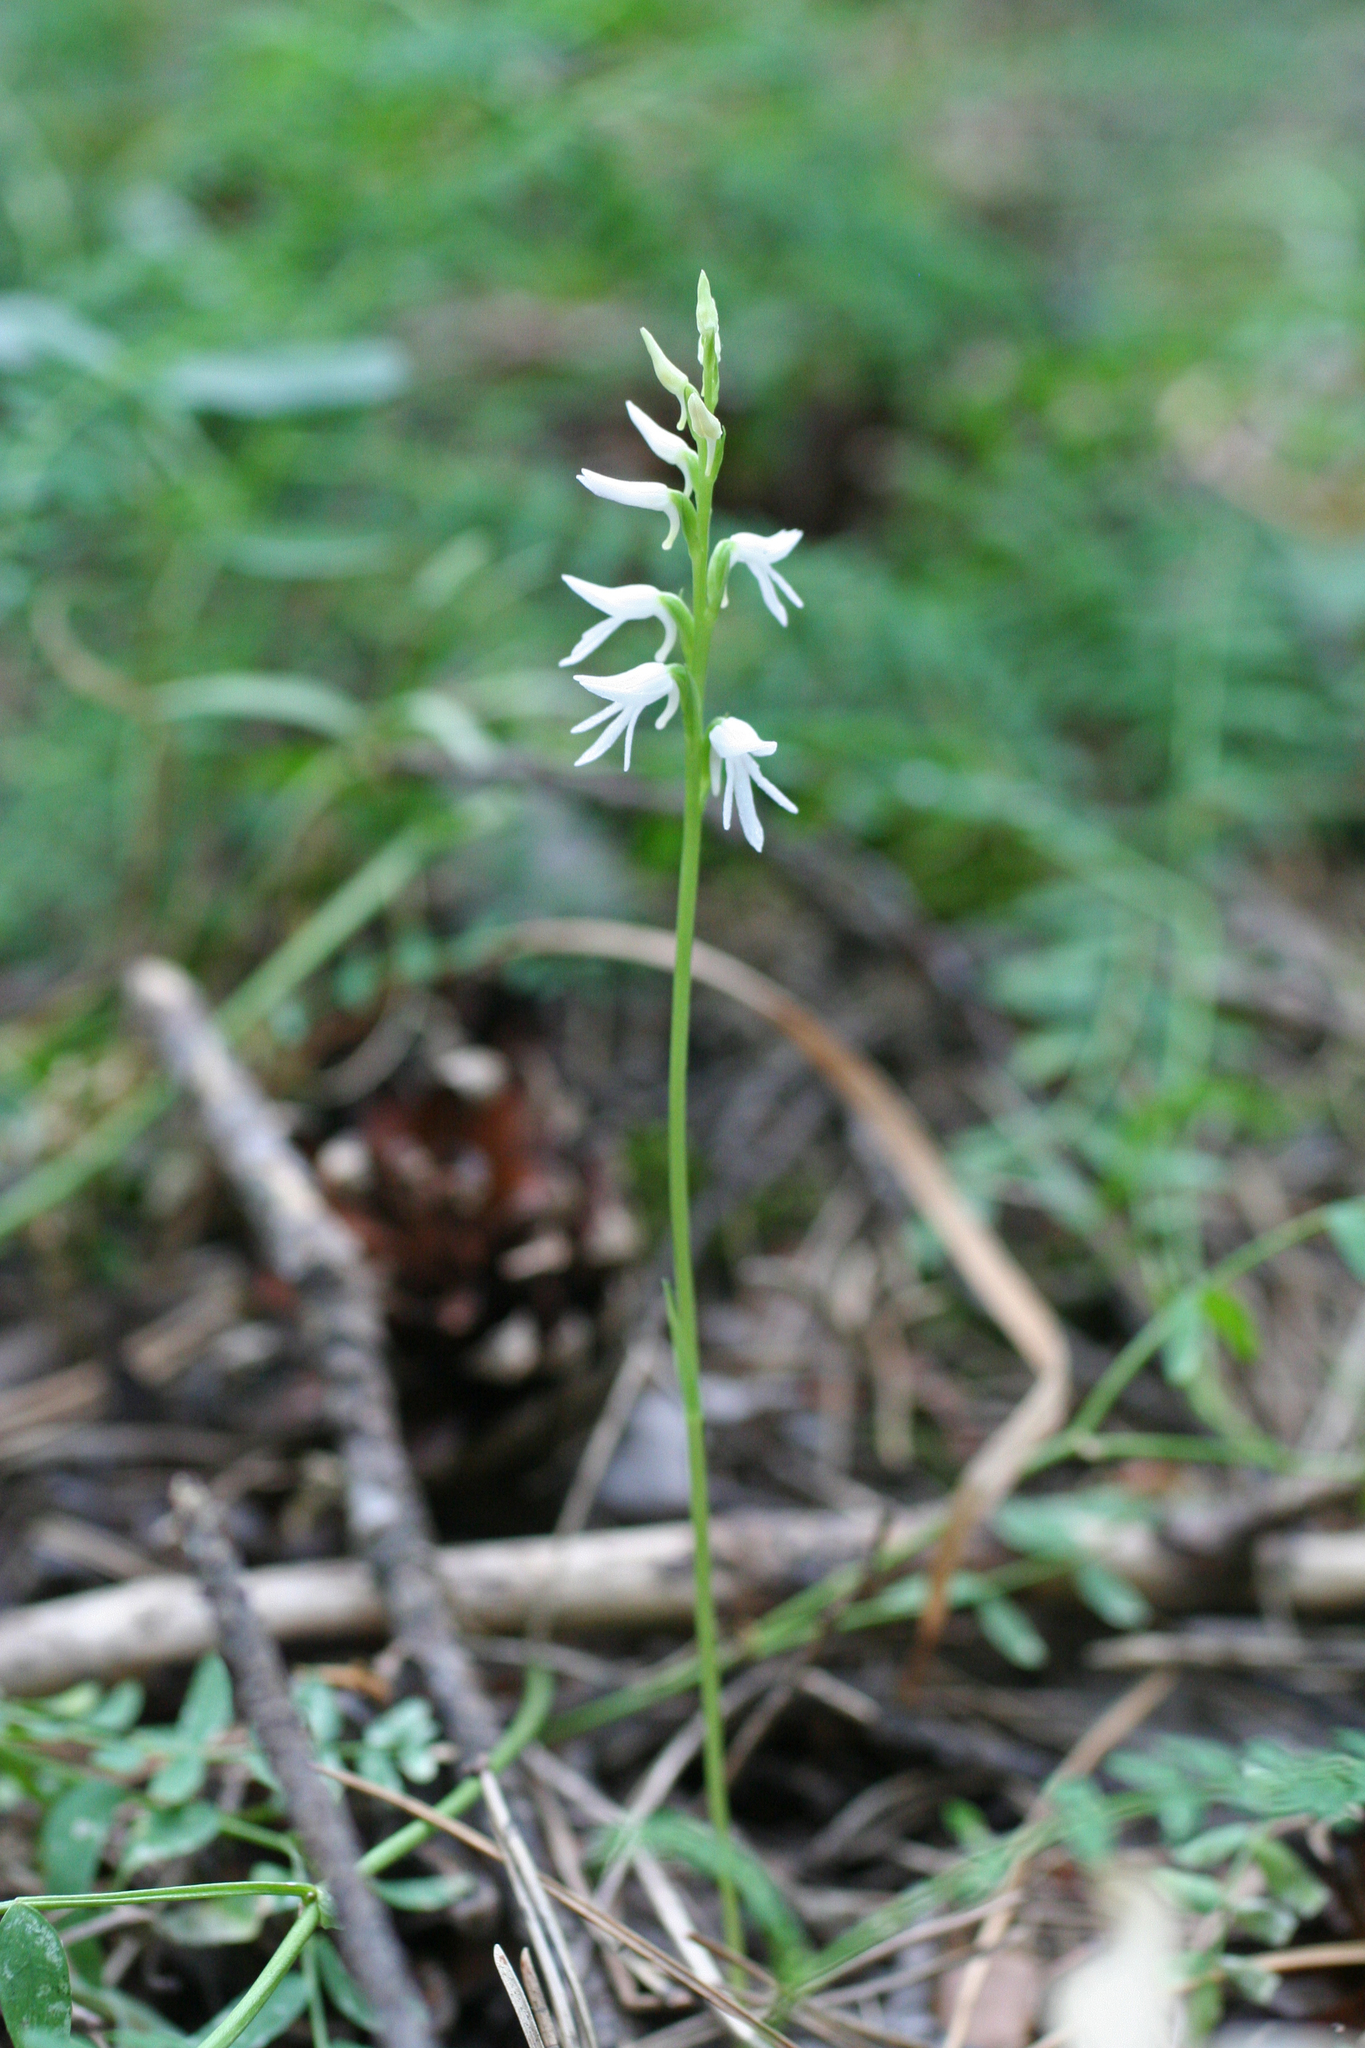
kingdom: Plantae
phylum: Tracheophyta
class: Liliopsida
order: Asparagales
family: Orchidaceae
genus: Hemipilia
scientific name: Hemipilia cucullata
